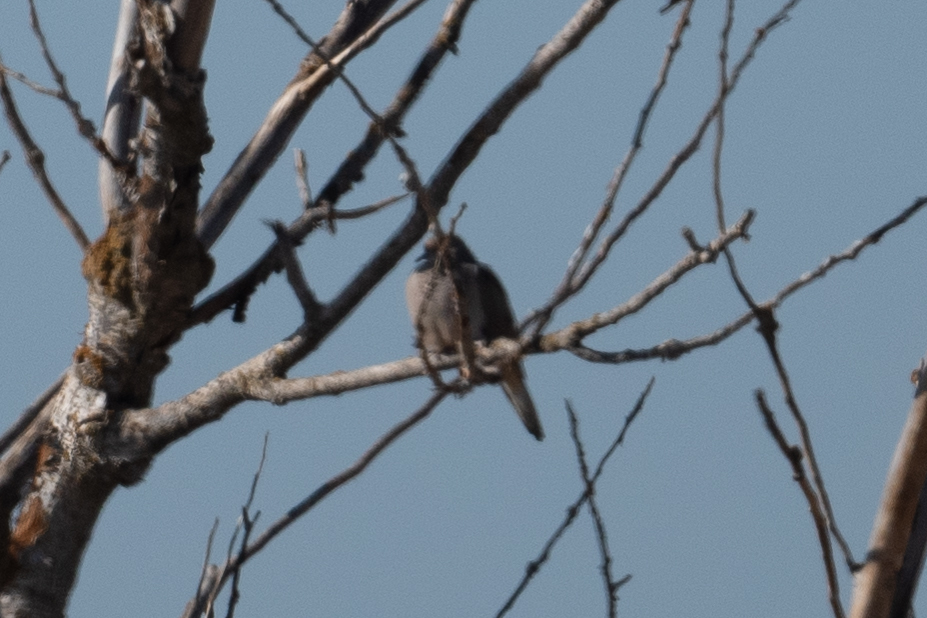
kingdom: Animalia
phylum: Chordata
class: Aves
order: Columbiformes
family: Columbidae
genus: Zenaida
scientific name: Zenaida macroura
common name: Mourning dove
